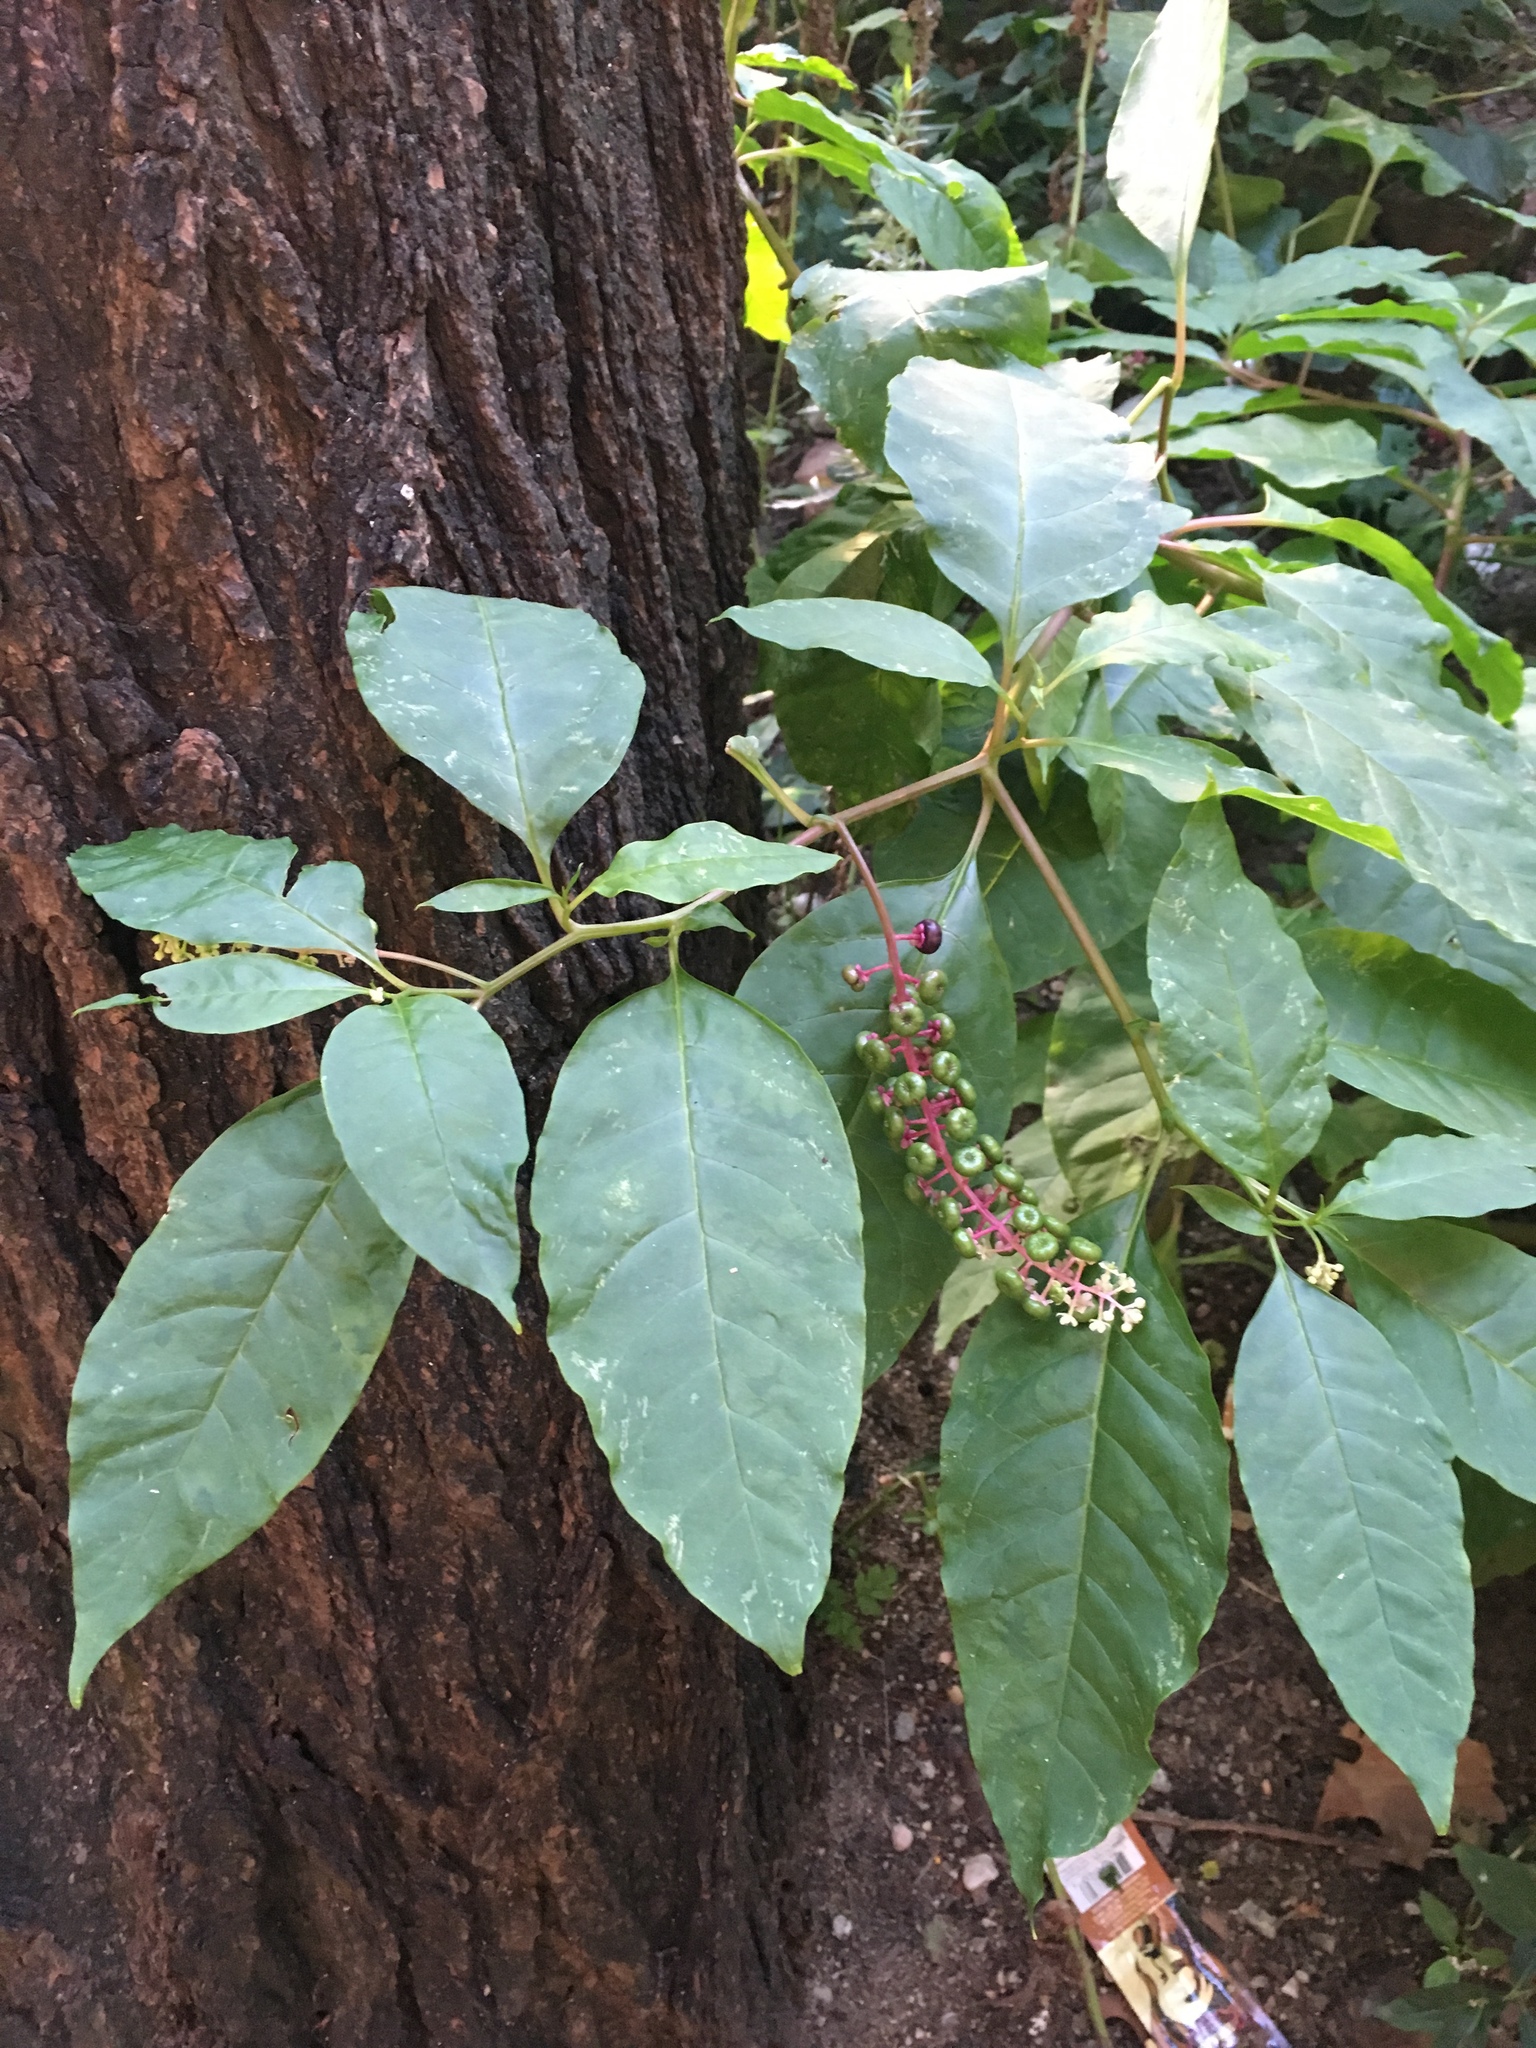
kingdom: Plantae
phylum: Tracheophyta
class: Magnoliopsida
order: Caryophyllales
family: Phytolaccaceae
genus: Phytolacca
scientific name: Phytolacca americana
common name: American pokeweed
